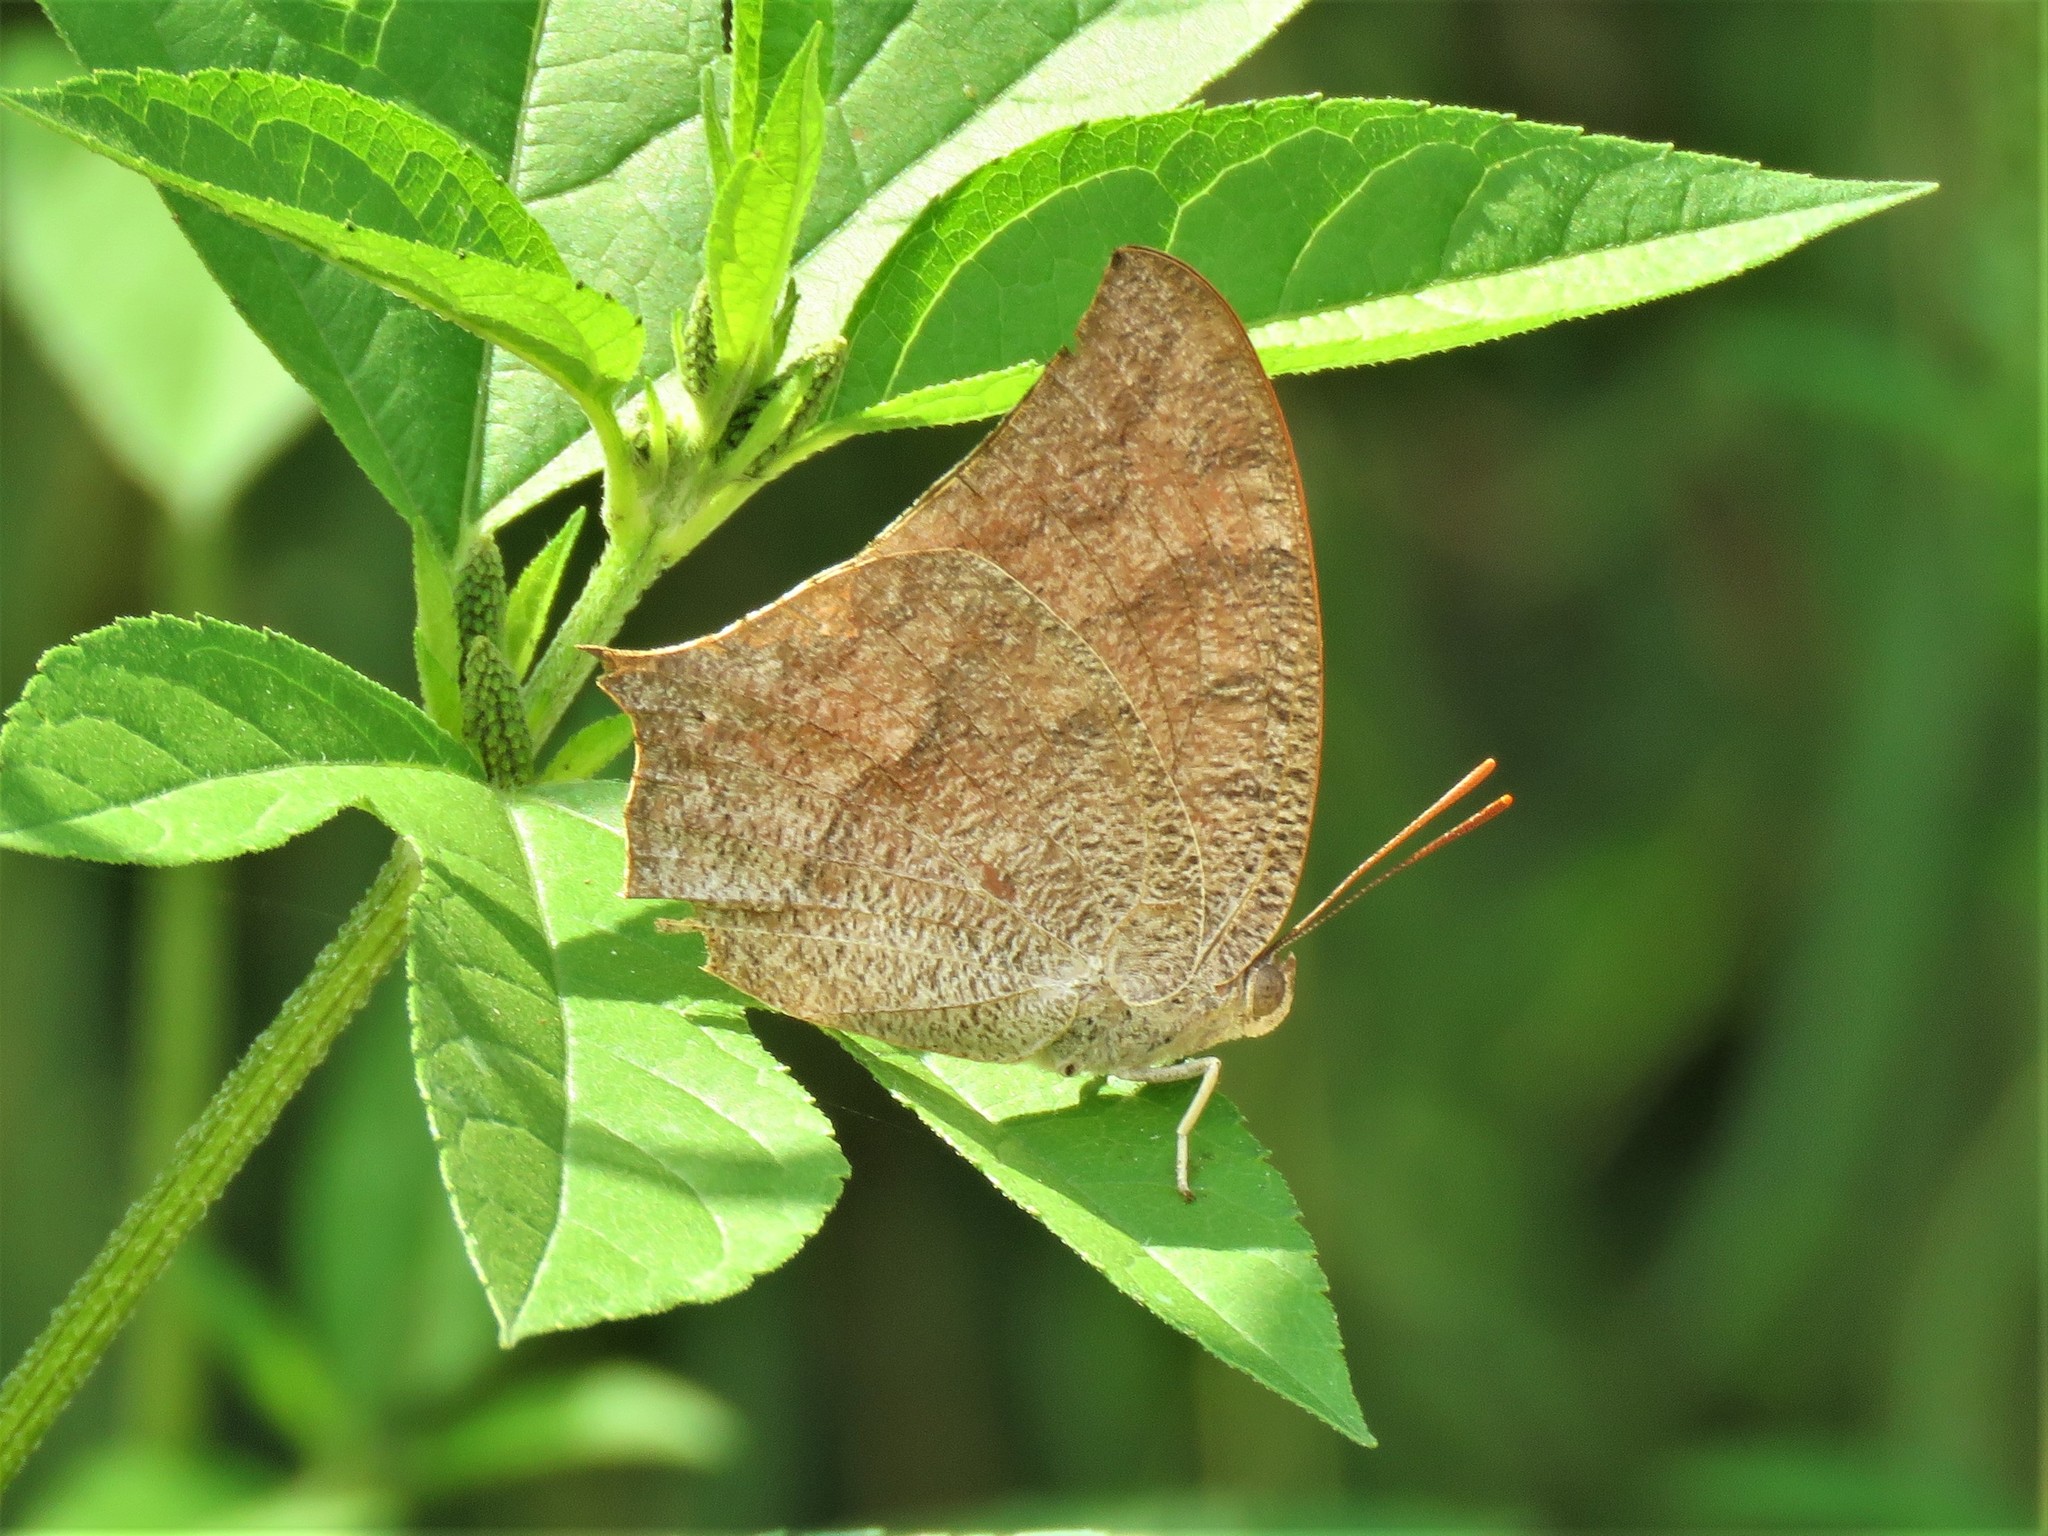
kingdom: Animalia
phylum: Arthropoda
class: Insecta
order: Lepidoptera
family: Nymphalidae
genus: Anaea
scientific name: Anaea andria
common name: Goatweed leafwing
